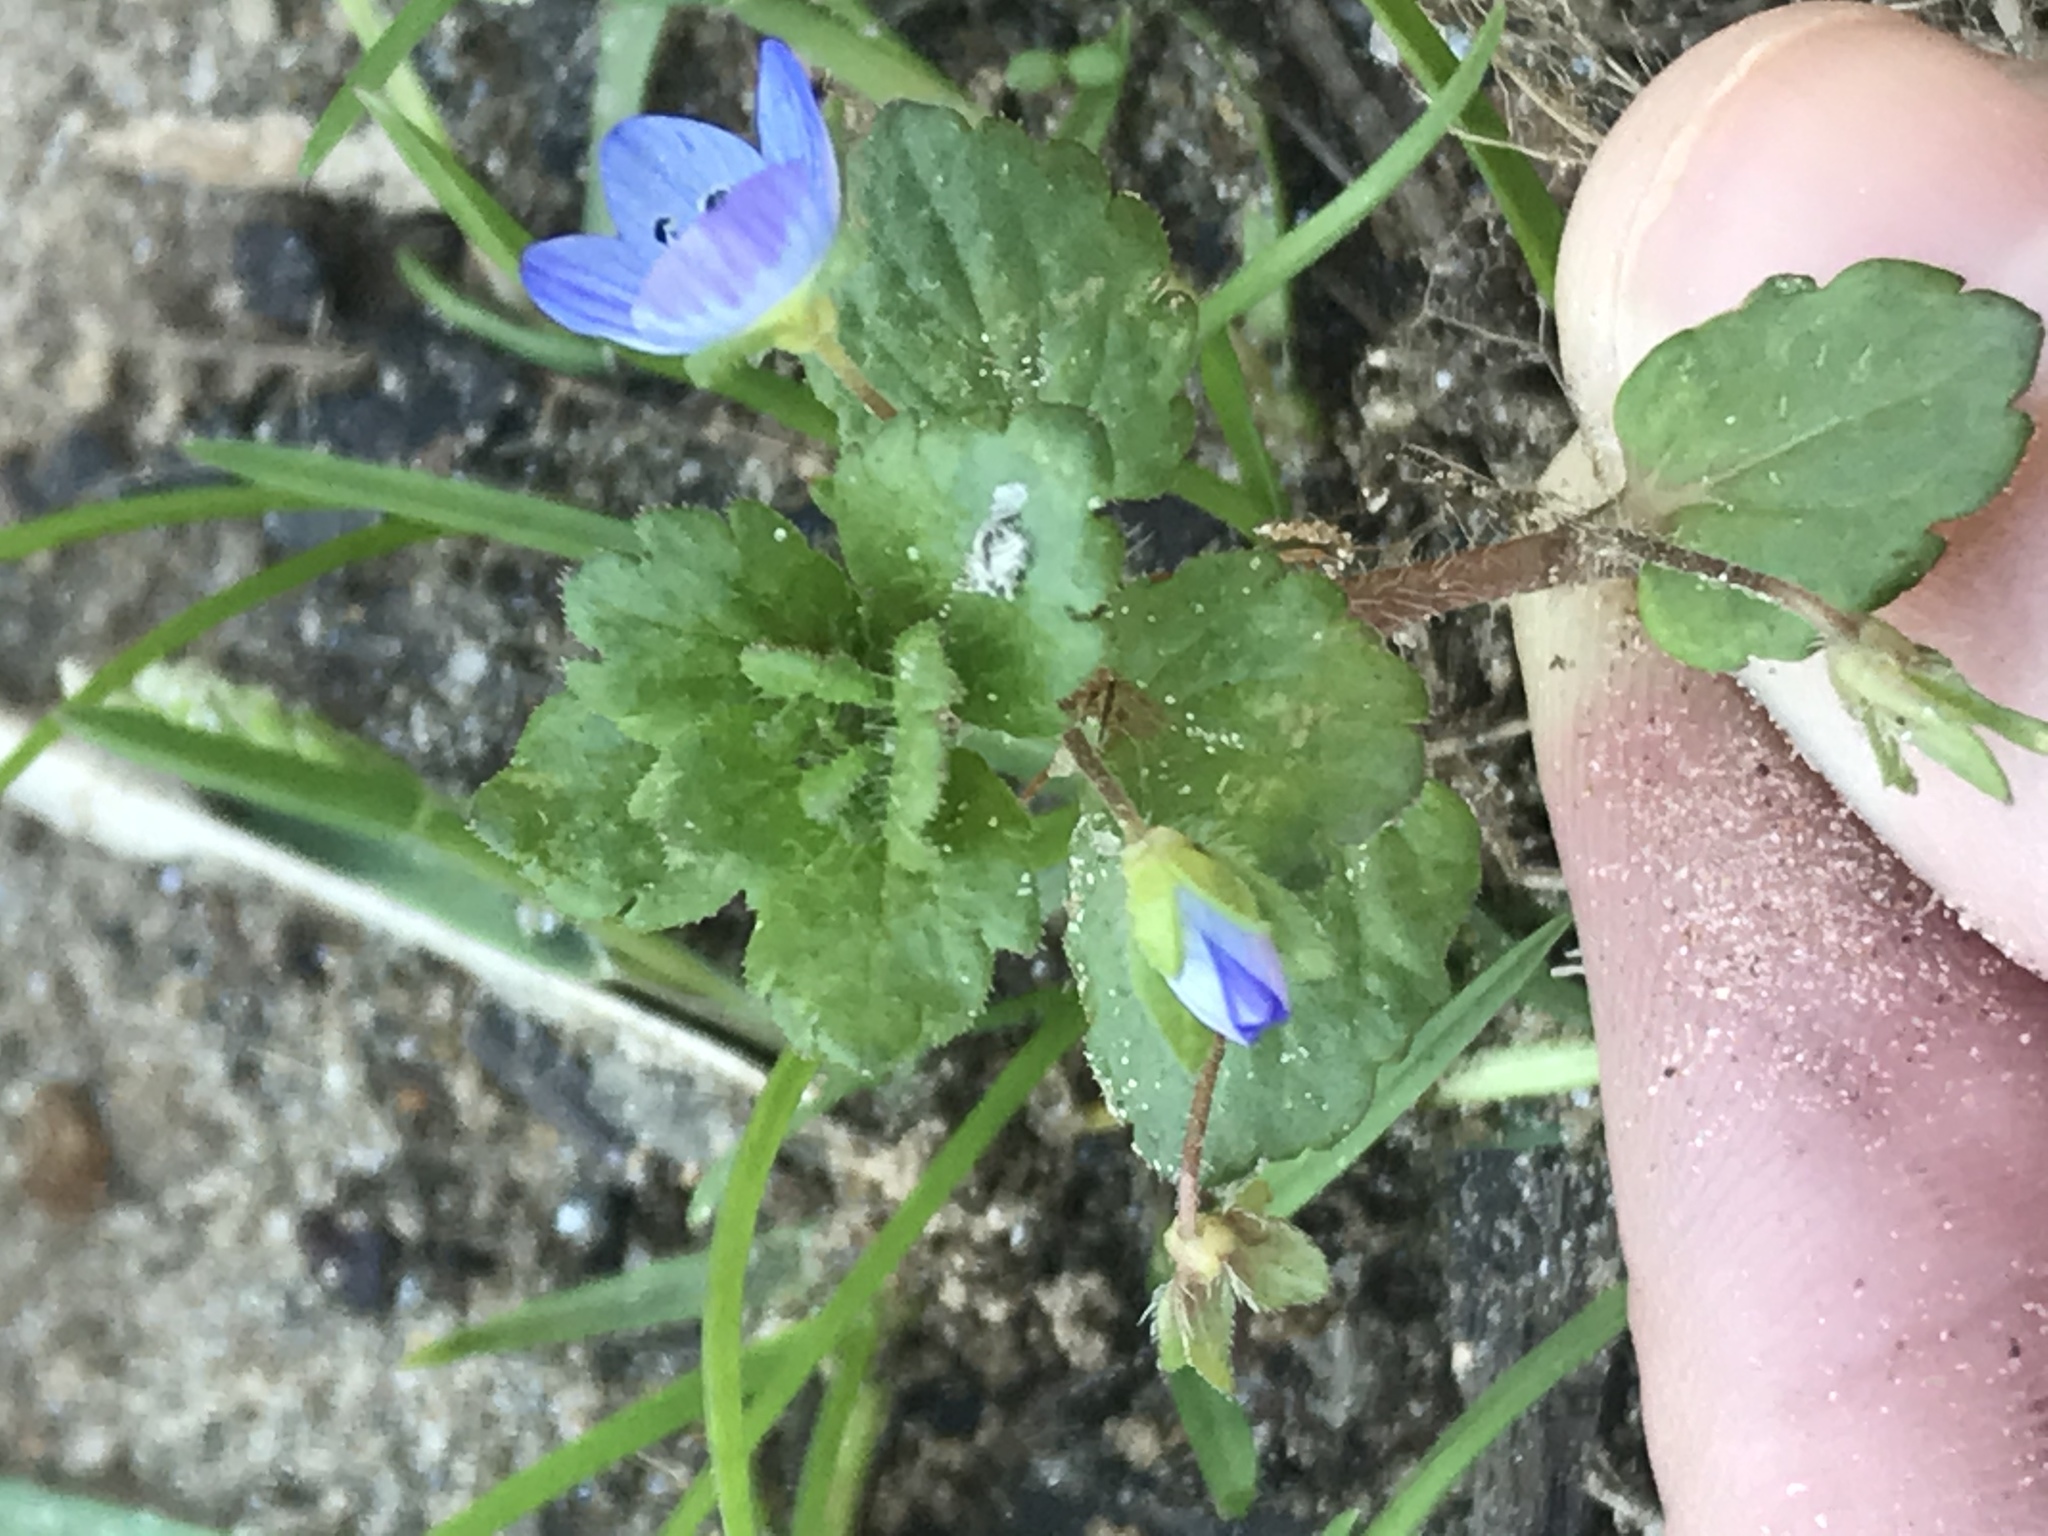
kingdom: Plantae
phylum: Tracheophyta
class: Magnoliopsida
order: Lamiales
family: Plantaginaceae
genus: Veronica
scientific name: Veronica persica
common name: Common field-speedwell
